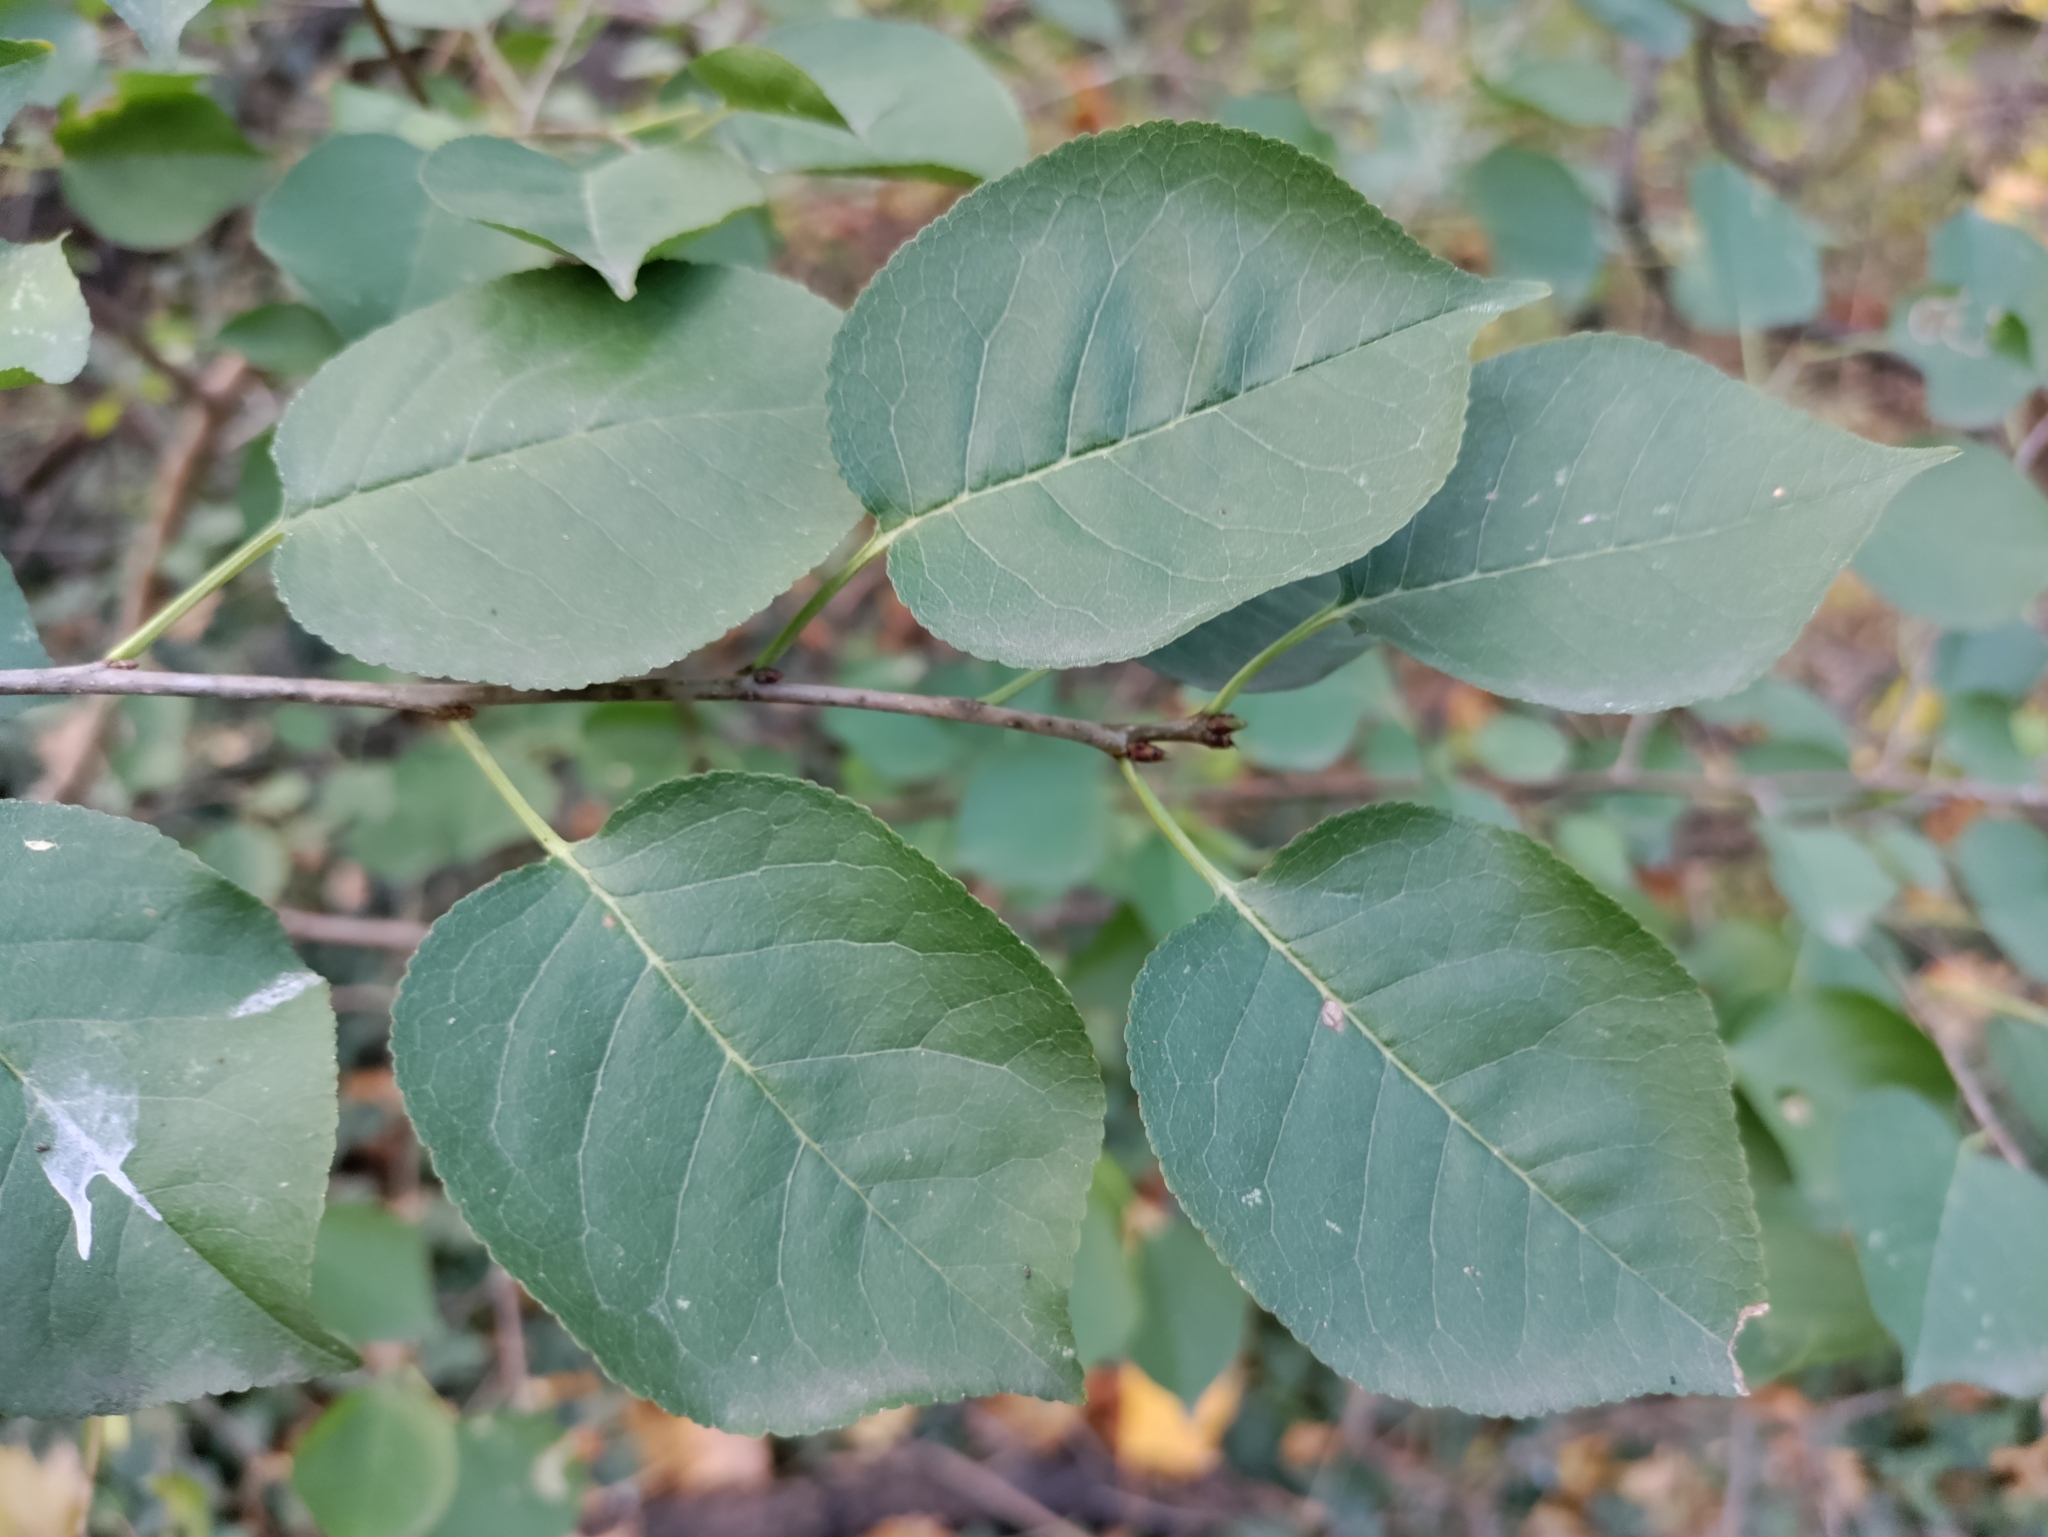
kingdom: Plantae
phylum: Tracheophyta
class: Magnoliopsida
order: Rosales
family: Rosaceae
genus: Prunus
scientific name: Prunus mahaleb
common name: Mahaleb cherry
